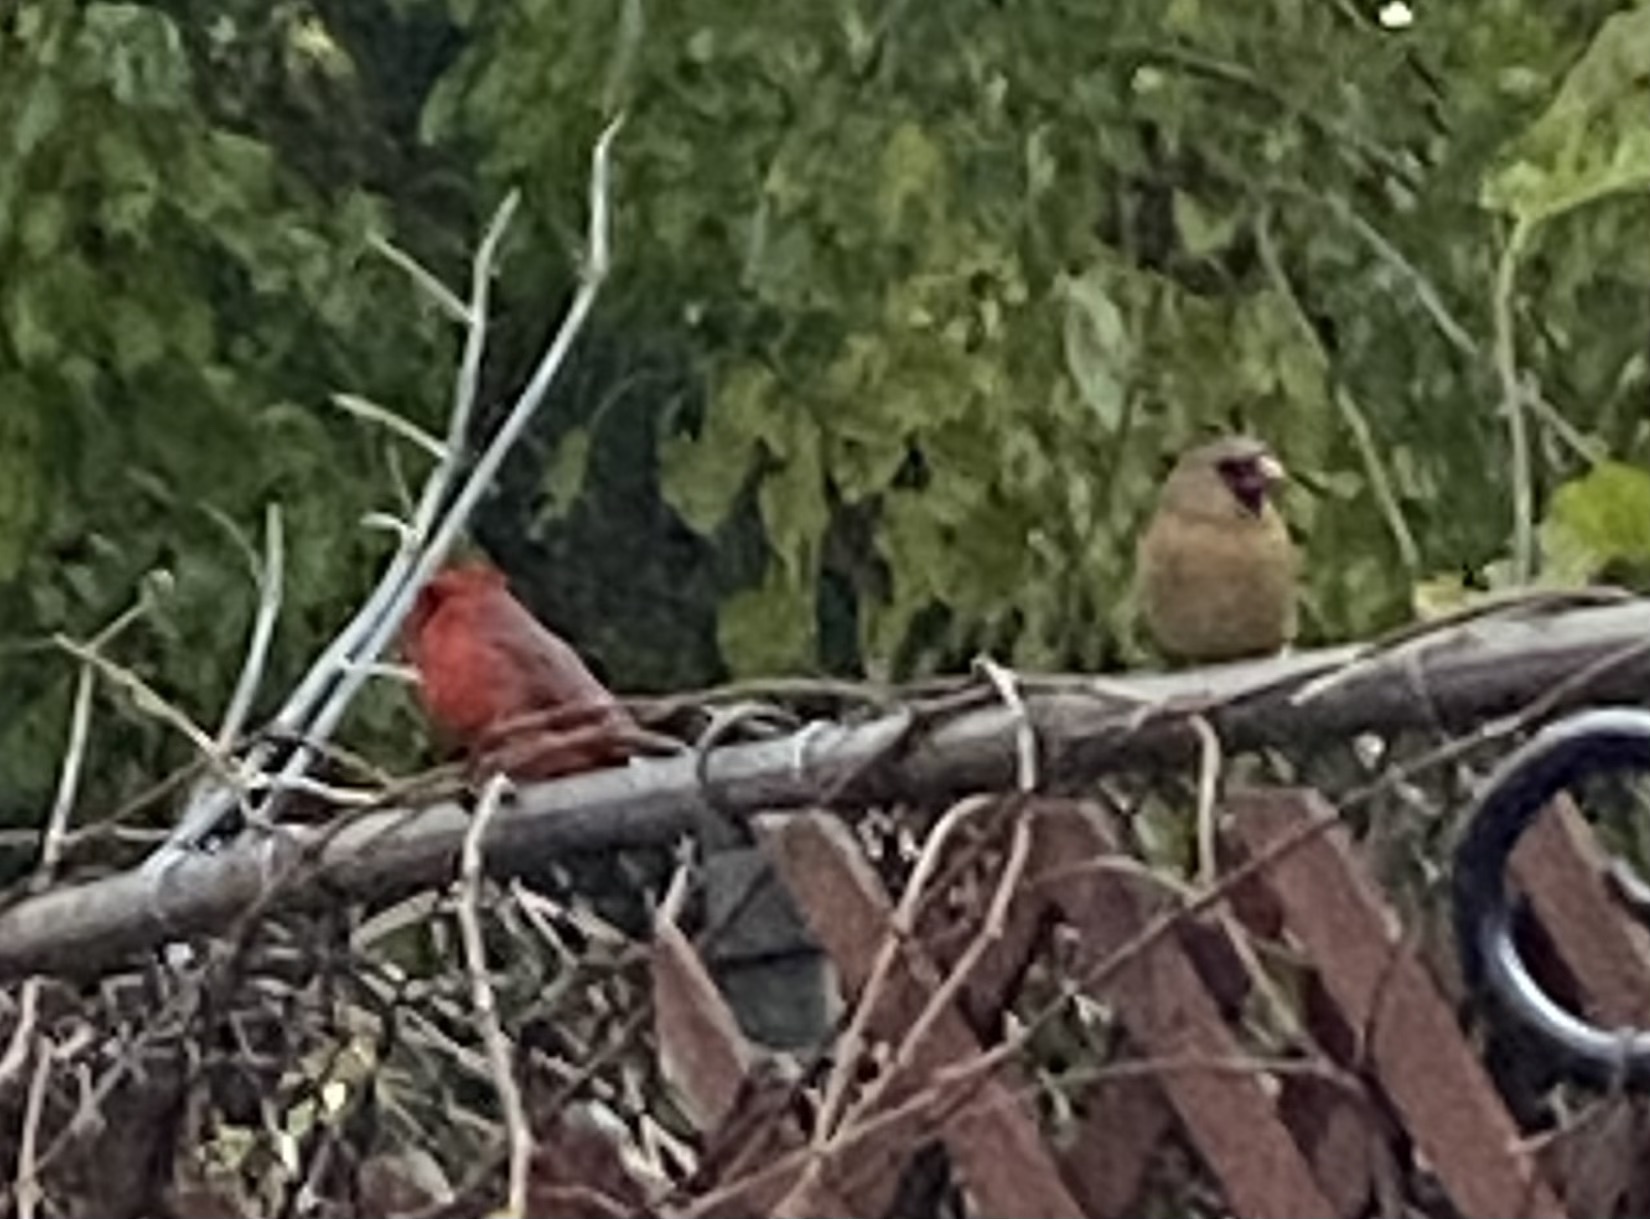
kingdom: Animalia
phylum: Chordata
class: Aves
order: Passeriformes
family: Cardinalidae
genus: Cardinalis
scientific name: Cardinalis cardinalis
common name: Northern cardinal
